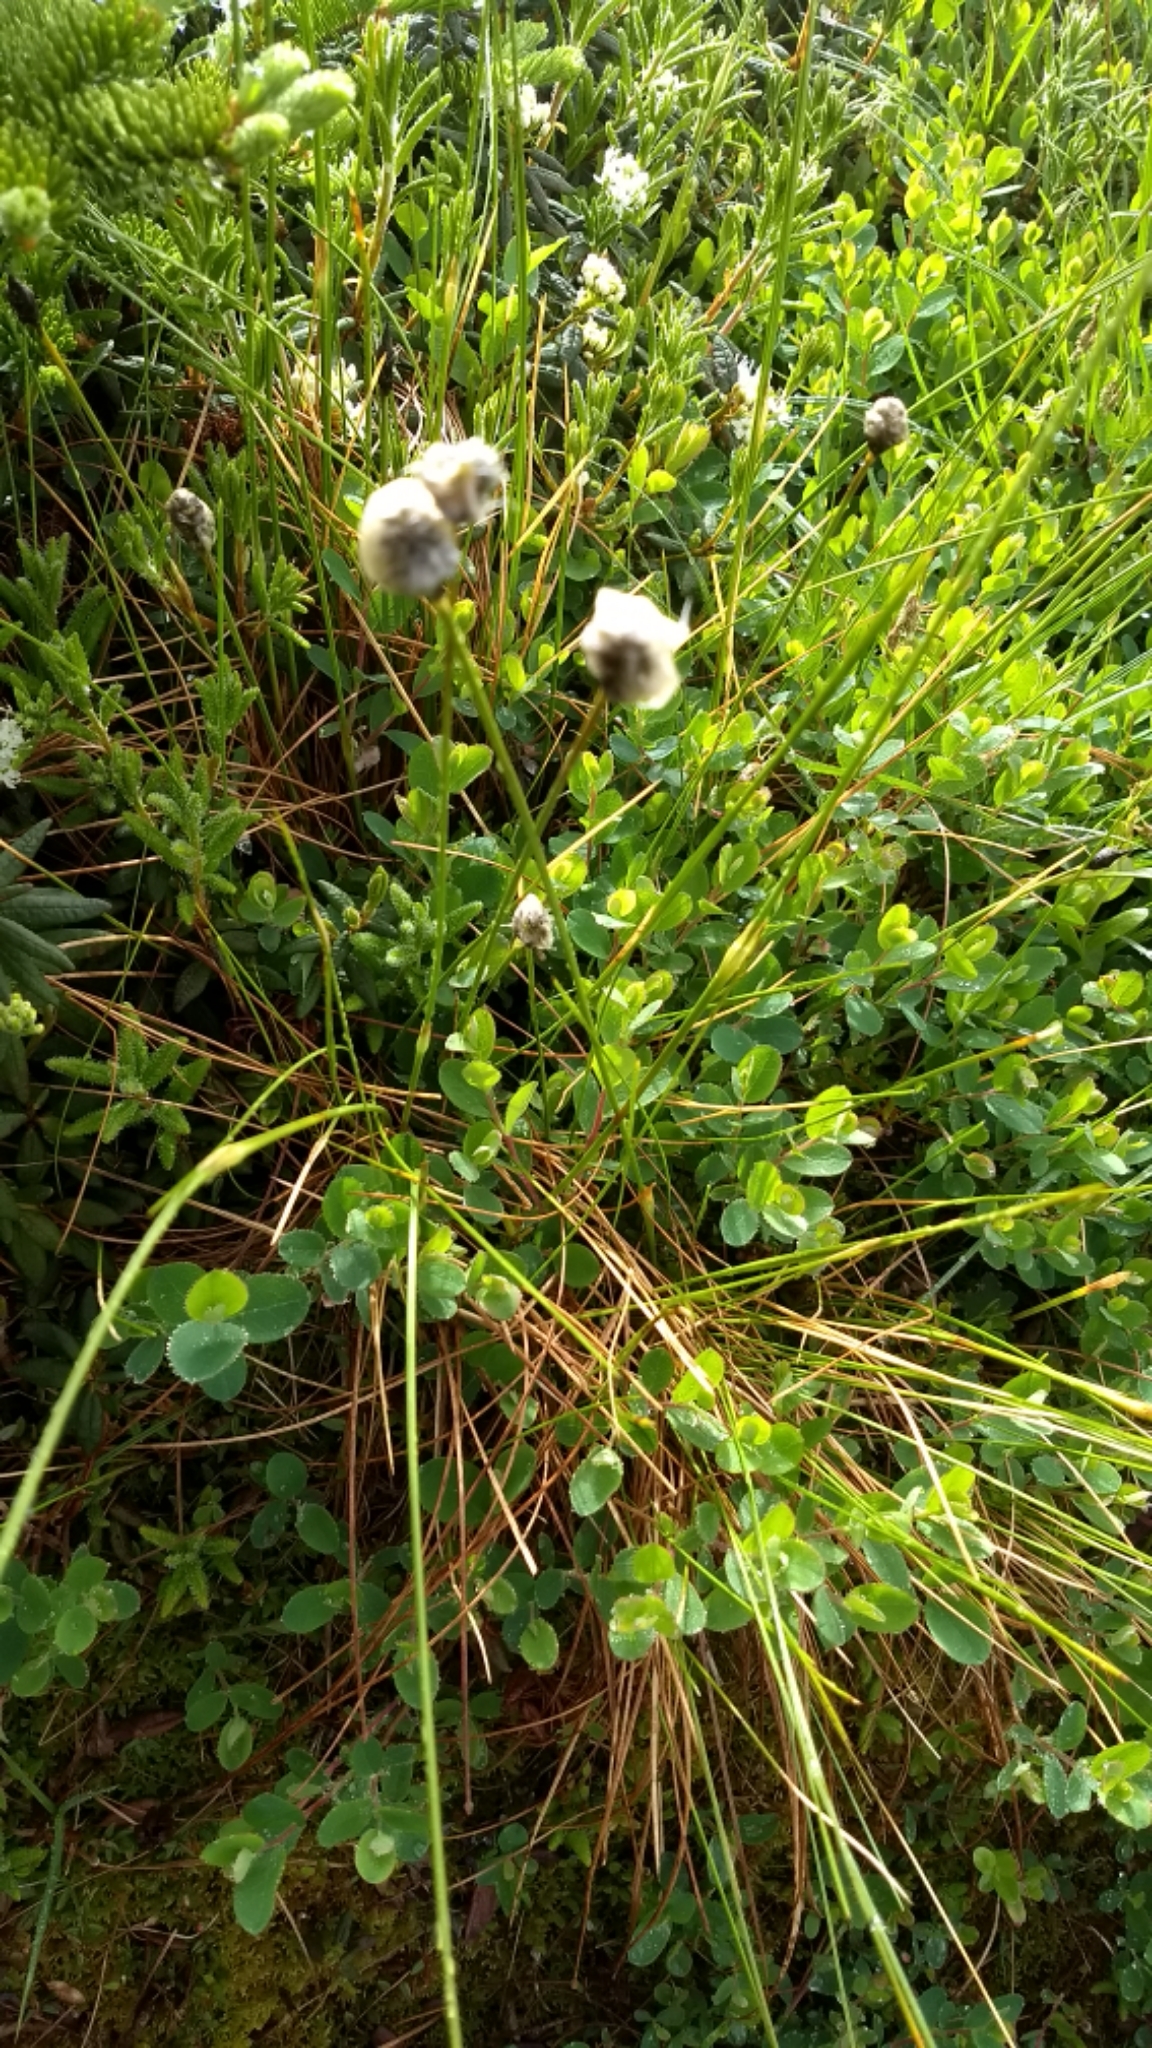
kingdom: Plantae
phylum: Tracheophyta
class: Liliopsida
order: Poales
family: Cyperaceae
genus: Eriophorum
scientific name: Eriophorum vaginatum
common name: Hare's-tail cottongrass
